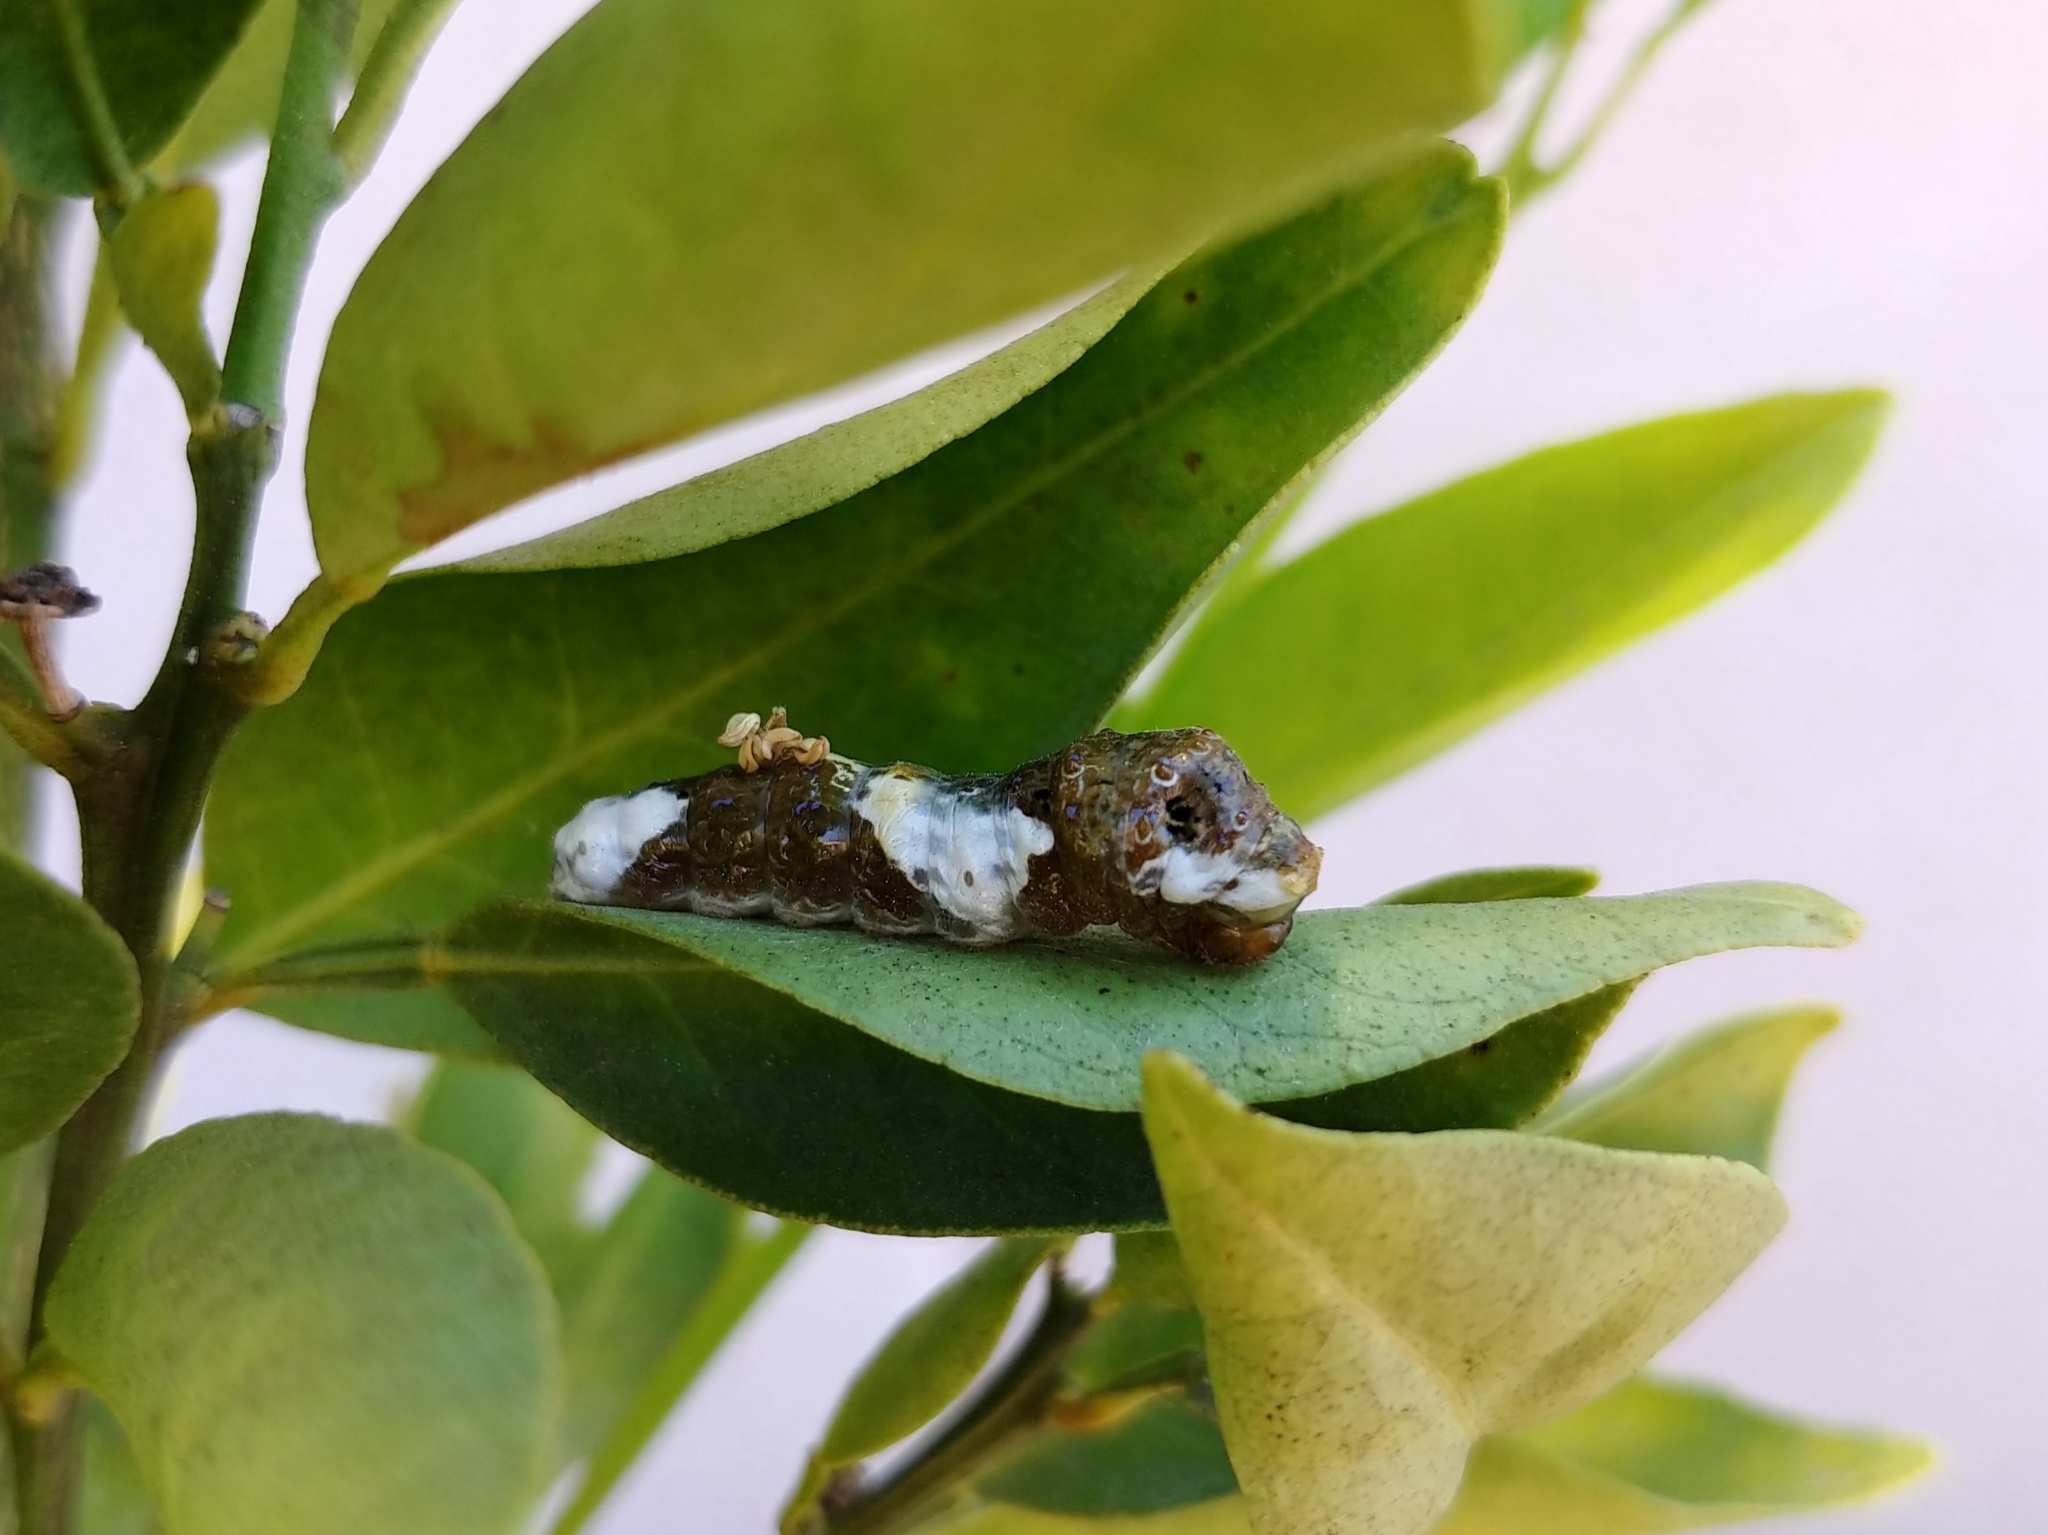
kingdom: Animalia
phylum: Arthropoda
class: Insecta
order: Lepidoptera
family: Papilionidae
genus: Papilio
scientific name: Papilio rumiko
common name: Western giant swallowtail
